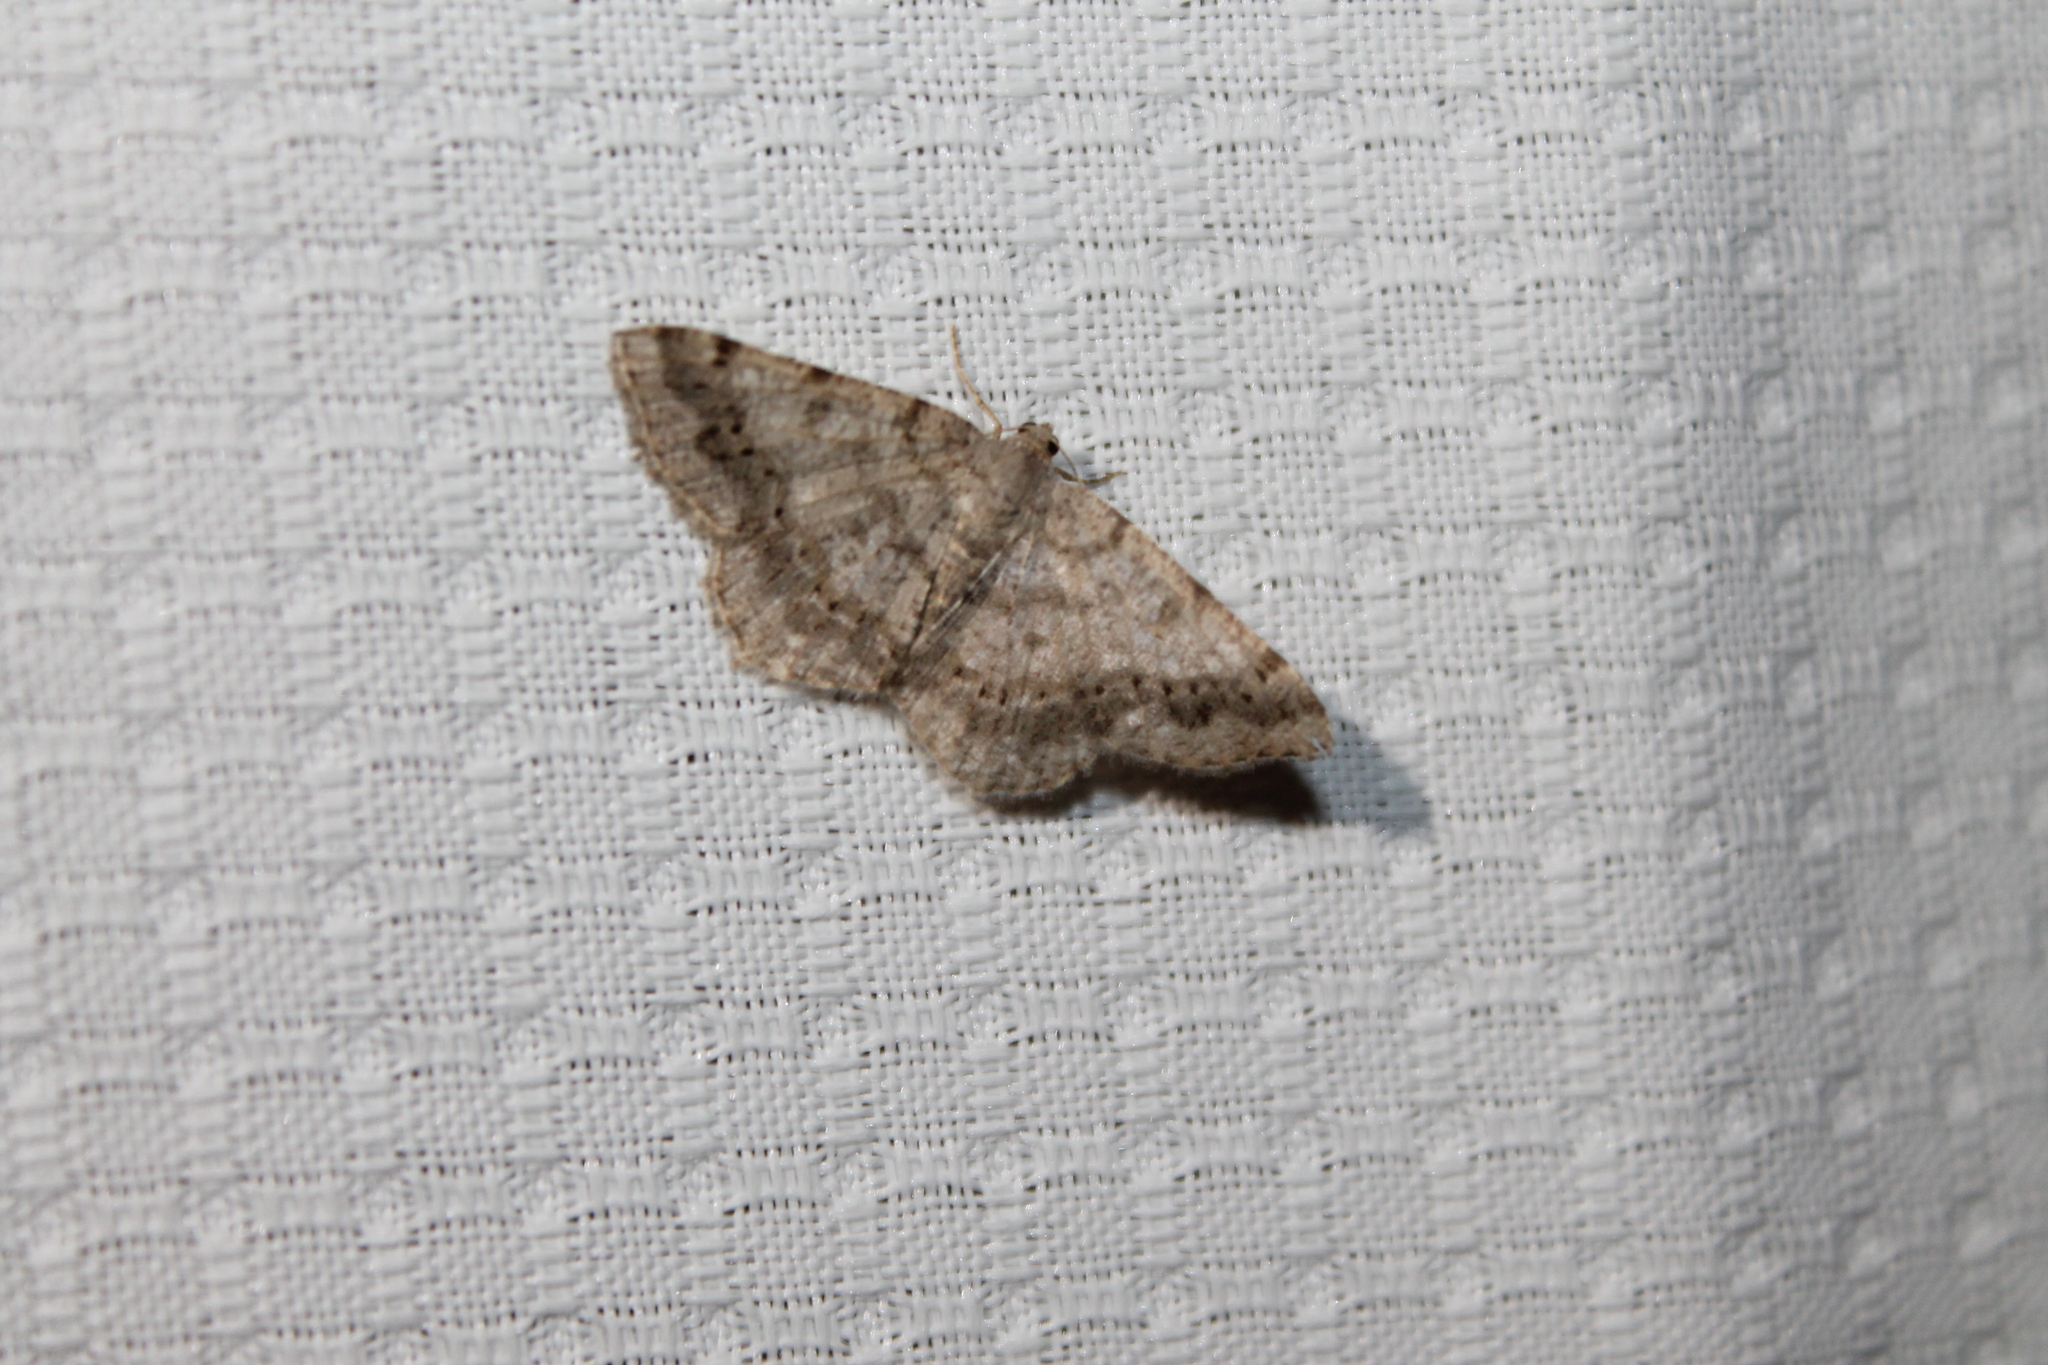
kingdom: Animalia
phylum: Arthropoda
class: Insecta
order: Lepidoptera
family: Geometridae
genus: Digrammia
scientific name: Digrammia ocellinata
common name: Faint-spotted angle
